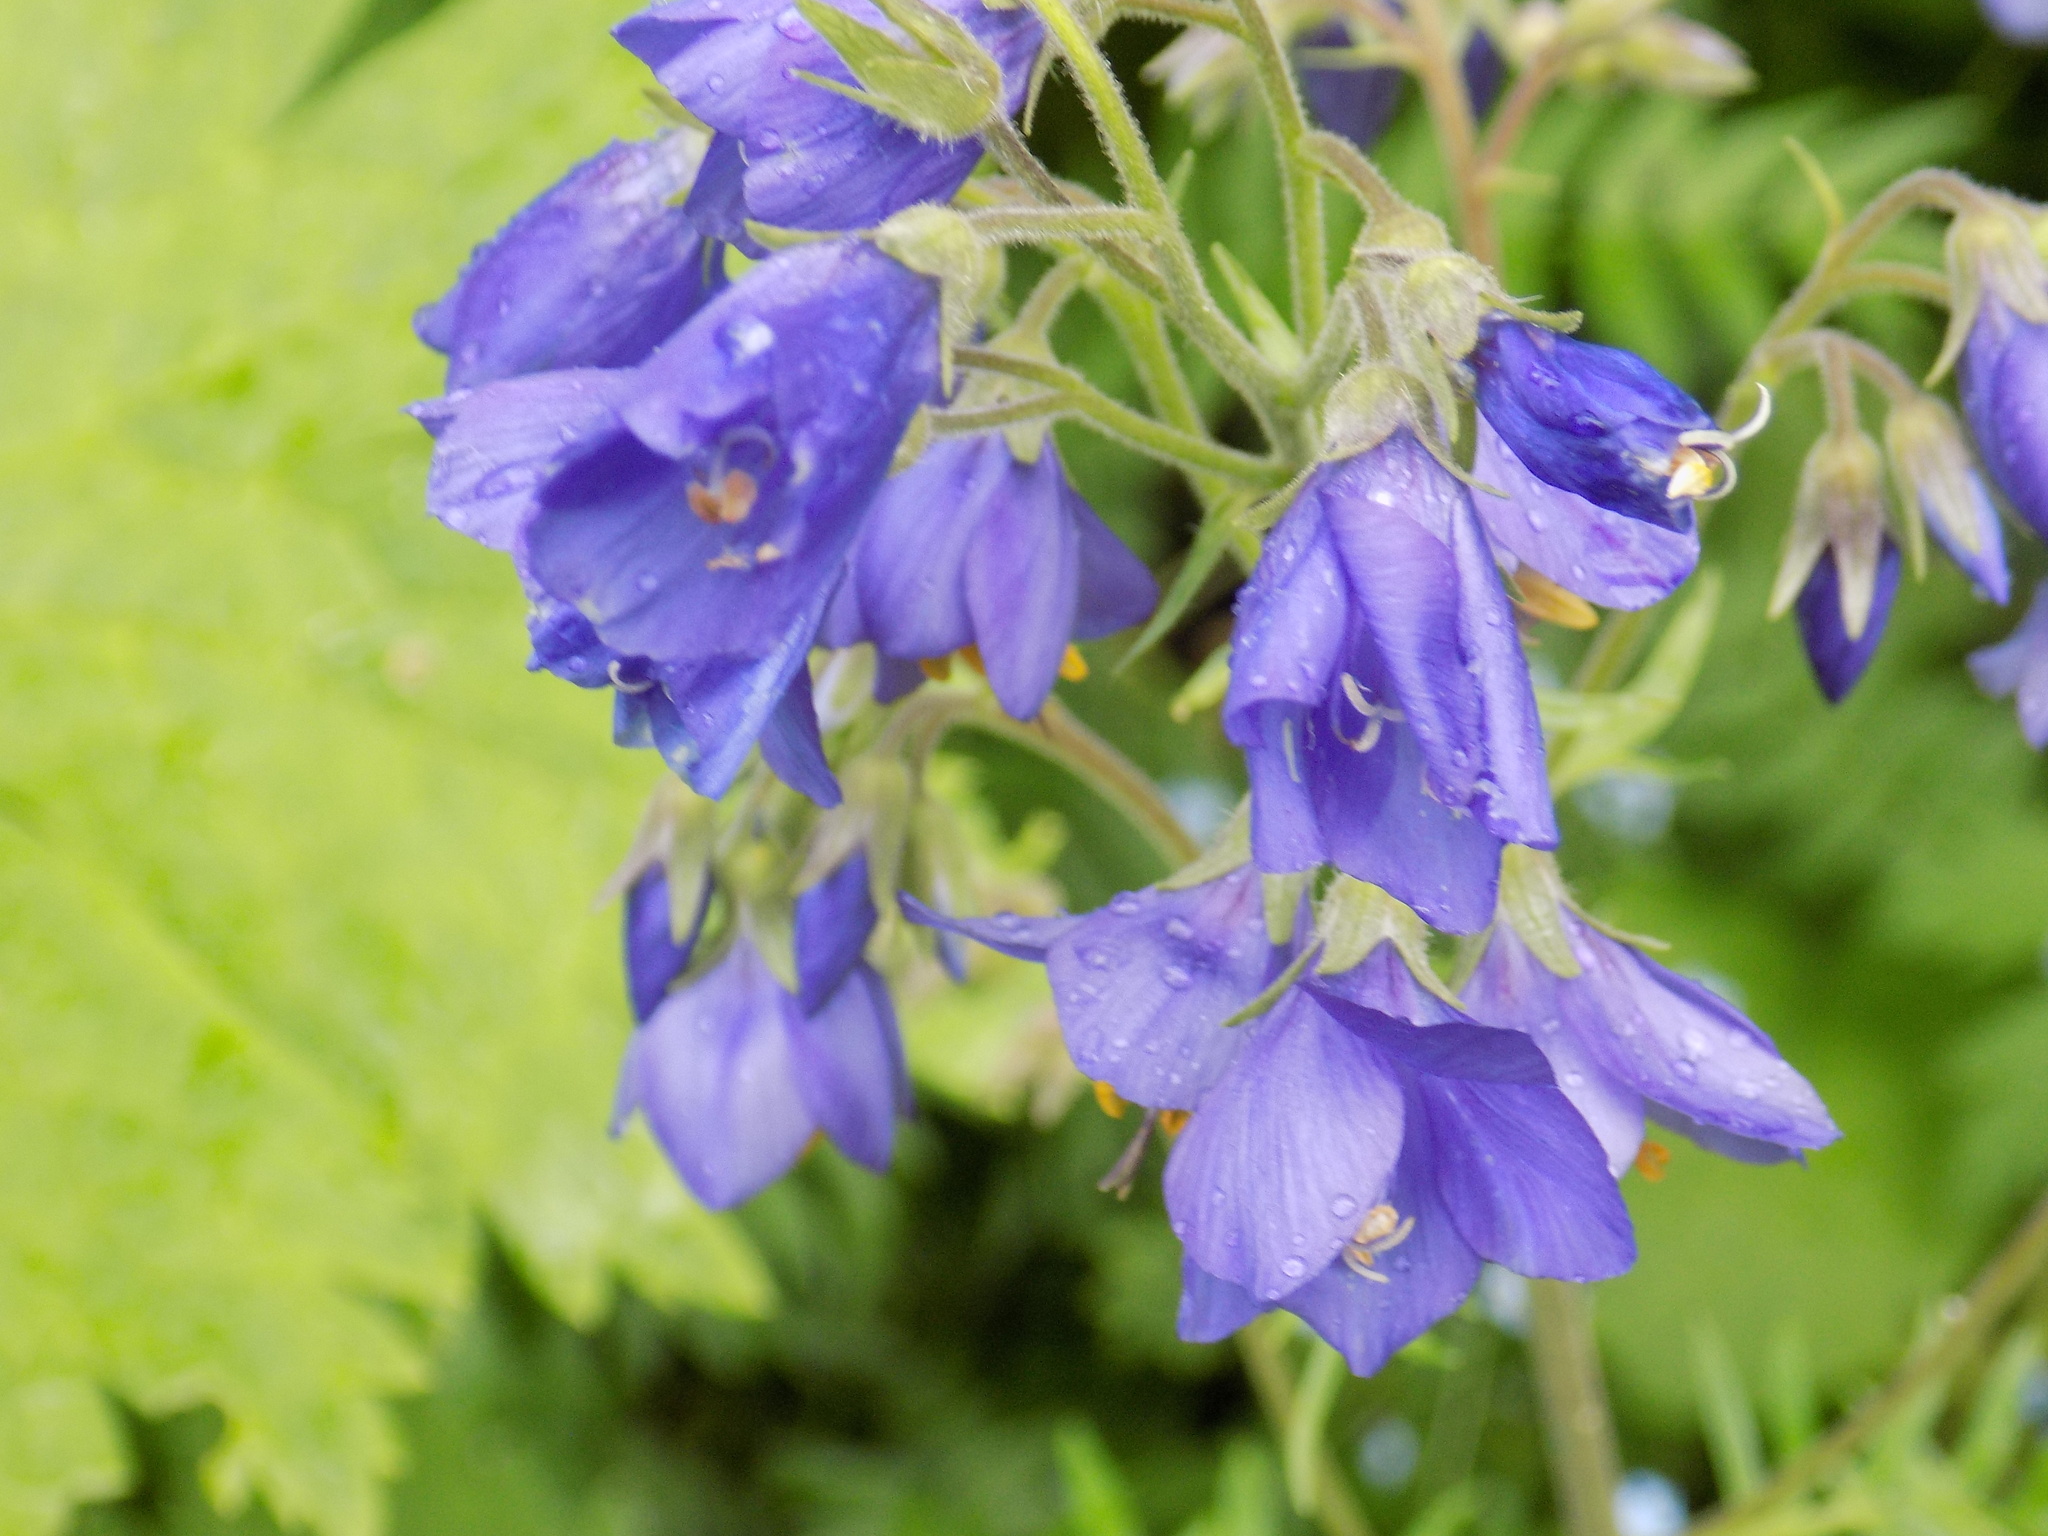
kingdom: Plantae
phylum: Tracheophyta
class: Magnoliopsida
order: Ericales
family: Polemoniaceae
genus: Polemonium
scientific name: Polemonium caeruleum
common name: Jacob's-ladder
